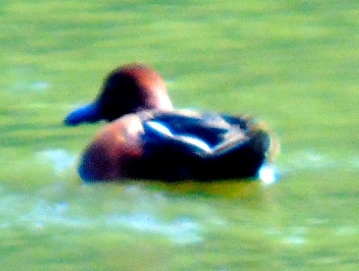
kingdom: Animalia
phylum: Chordata
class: Aves
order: Anseriformes
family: Anatidae
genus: Spatula
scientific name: Spatula cyanoptera
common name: Cinnamon teal
